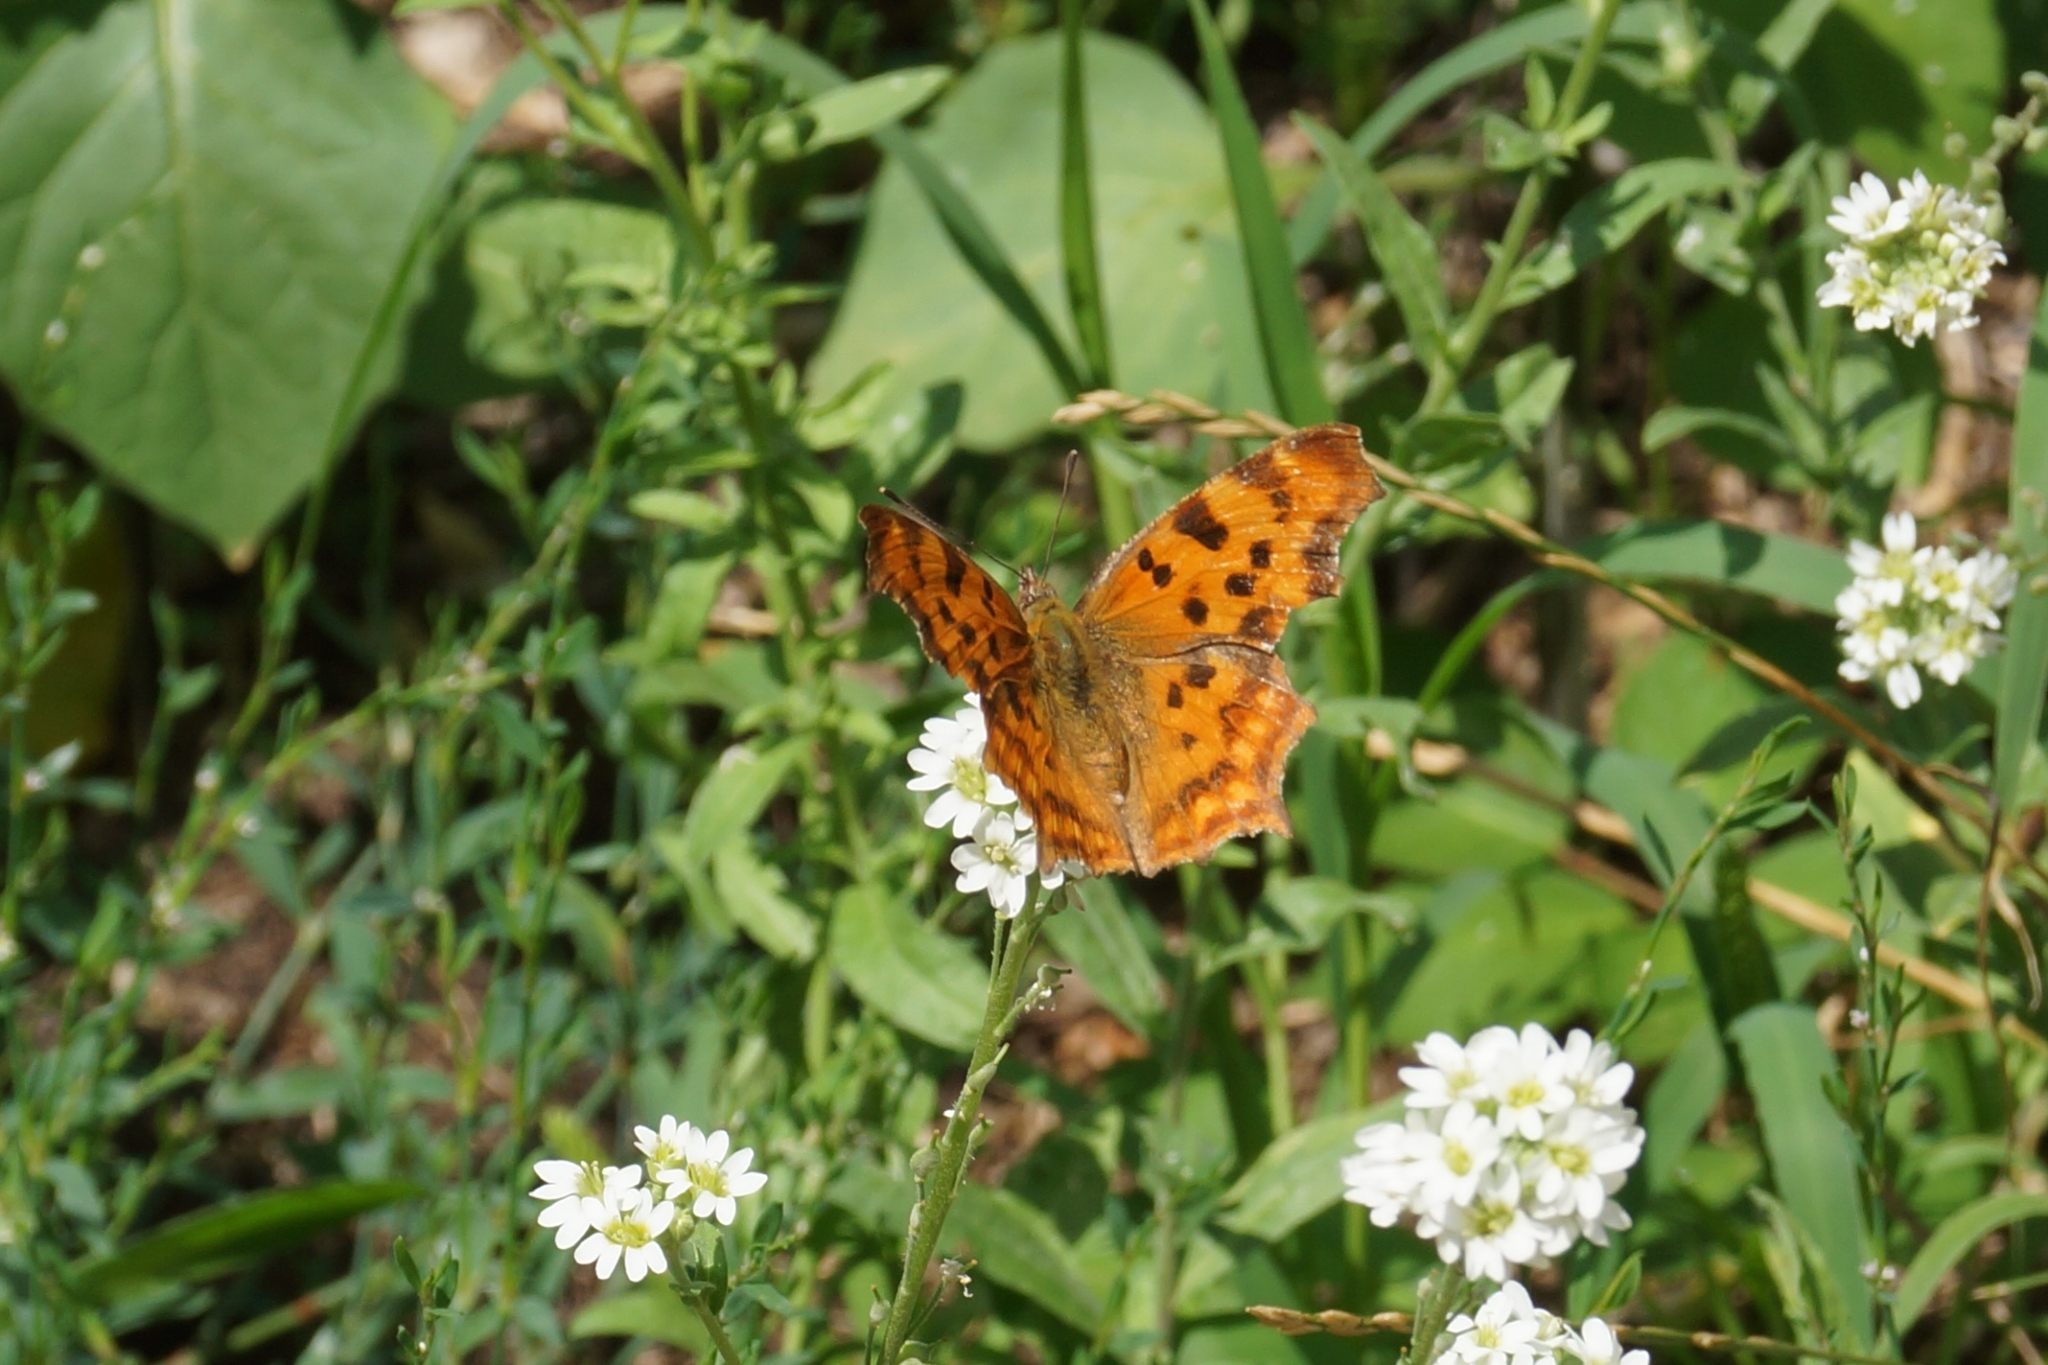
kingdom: Animalia
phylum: Arthropoda
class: Insecta
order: Lepidoptera
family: Nymphalidae
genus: Polygonia
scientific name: Polygonia c-album
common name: Comma
